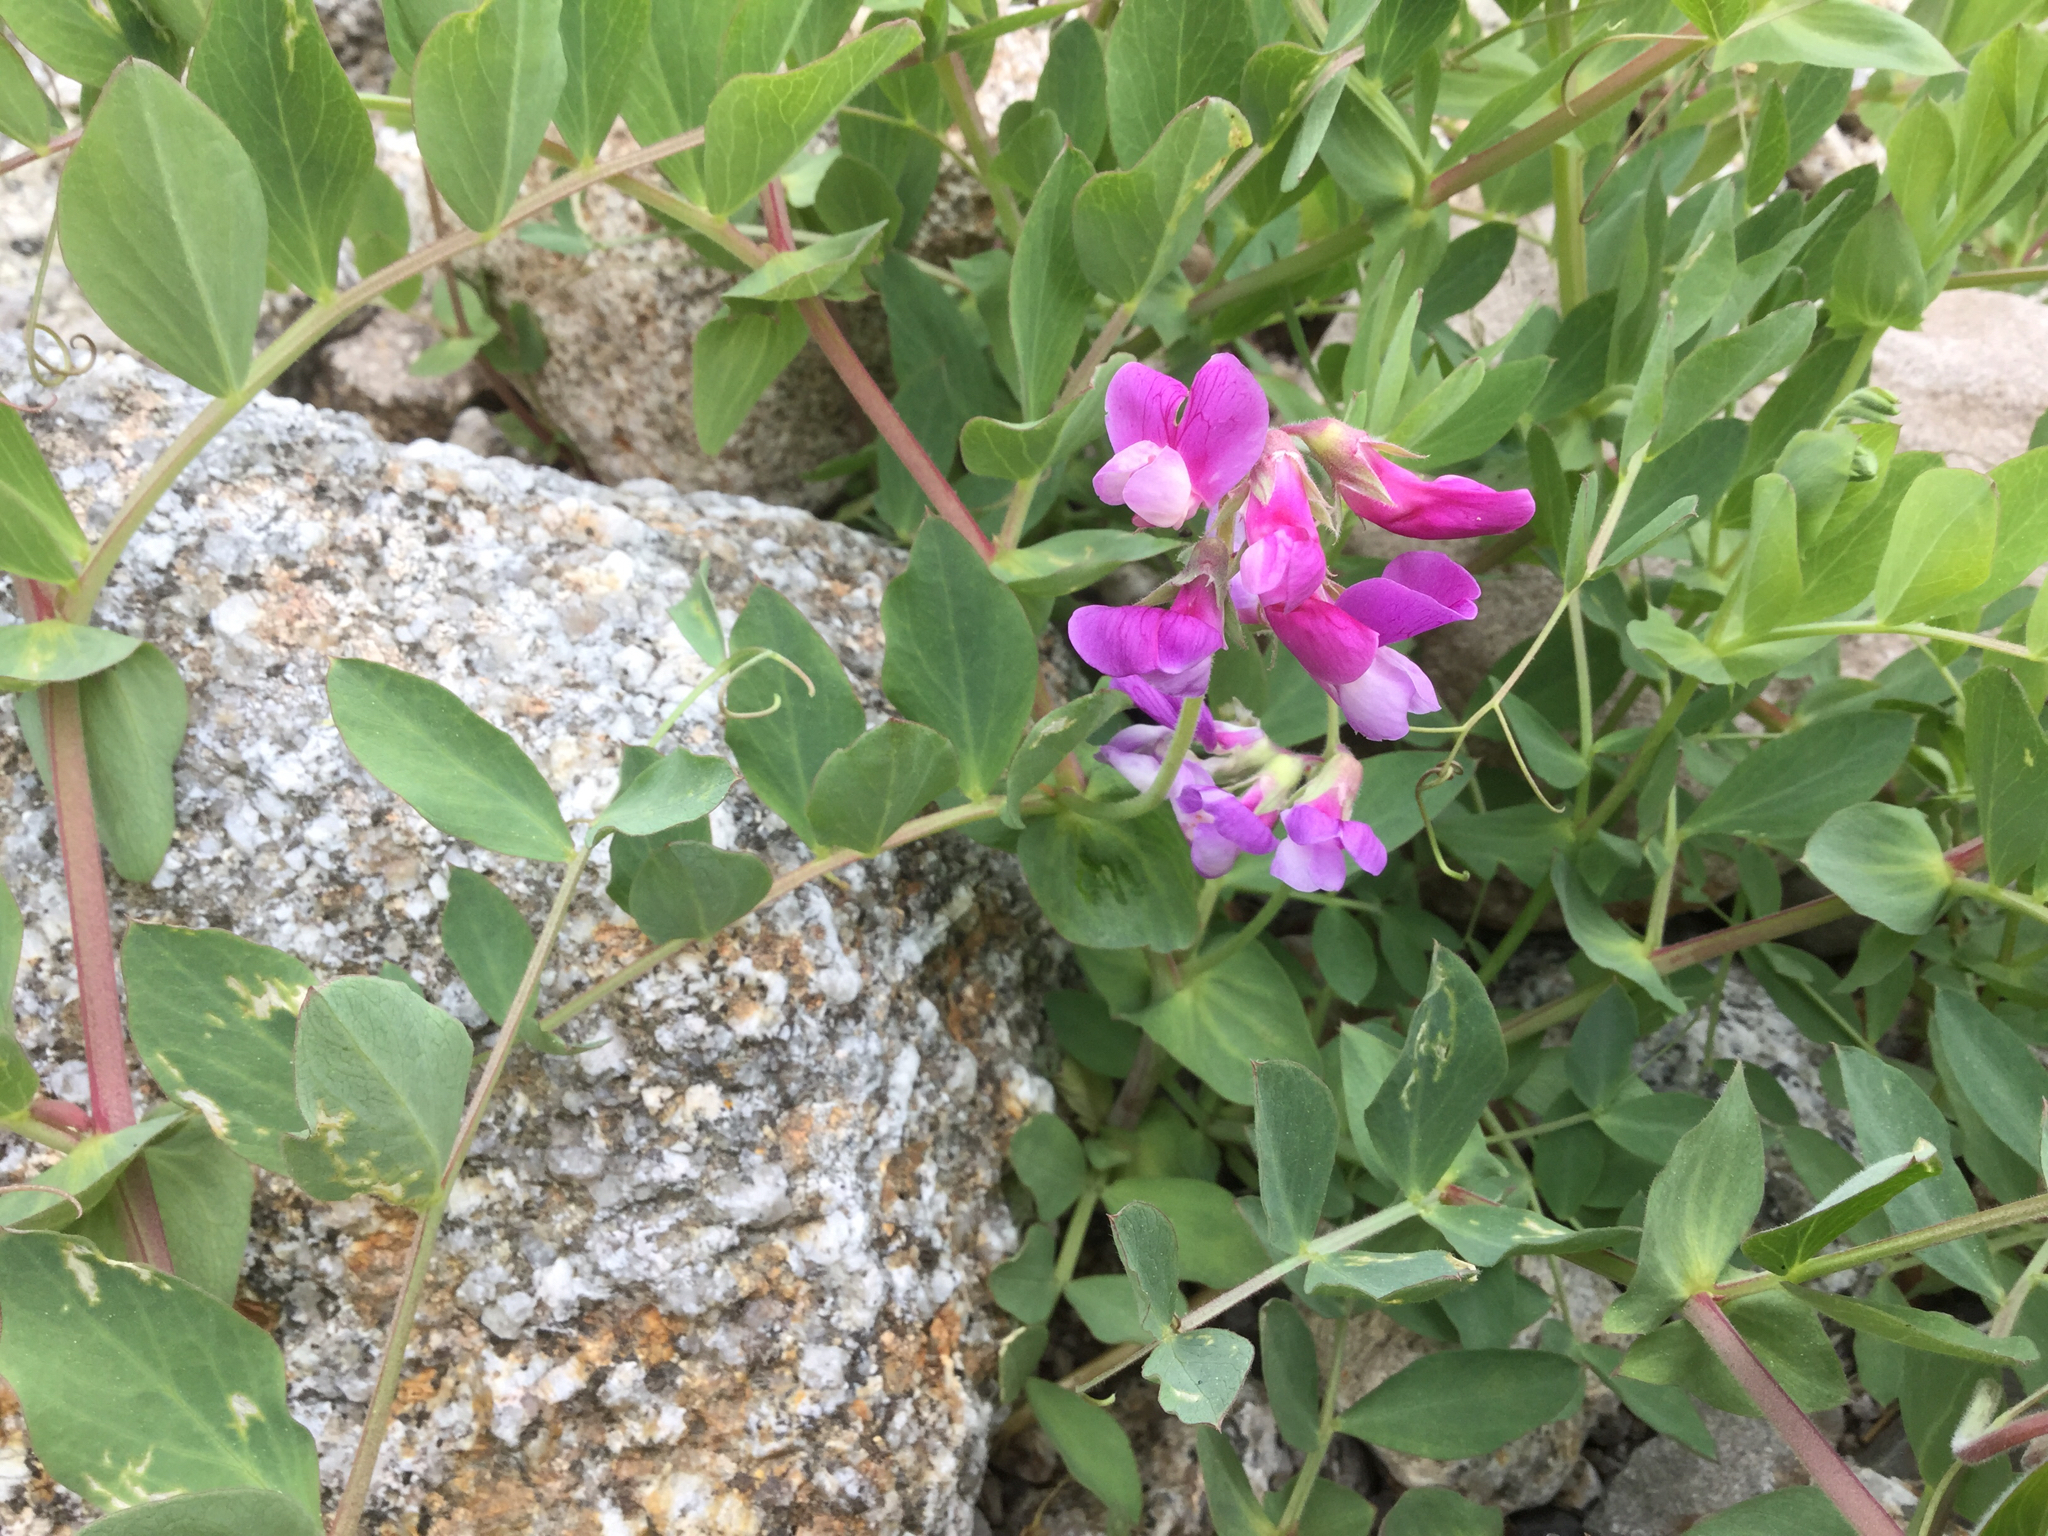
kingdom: Plantae
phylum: Tracheophyta
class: Magnoliopsida
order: Fabales
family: Fabaceae
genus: Lathyrus
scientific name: Lathyrus japonicus
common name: Sea pea
